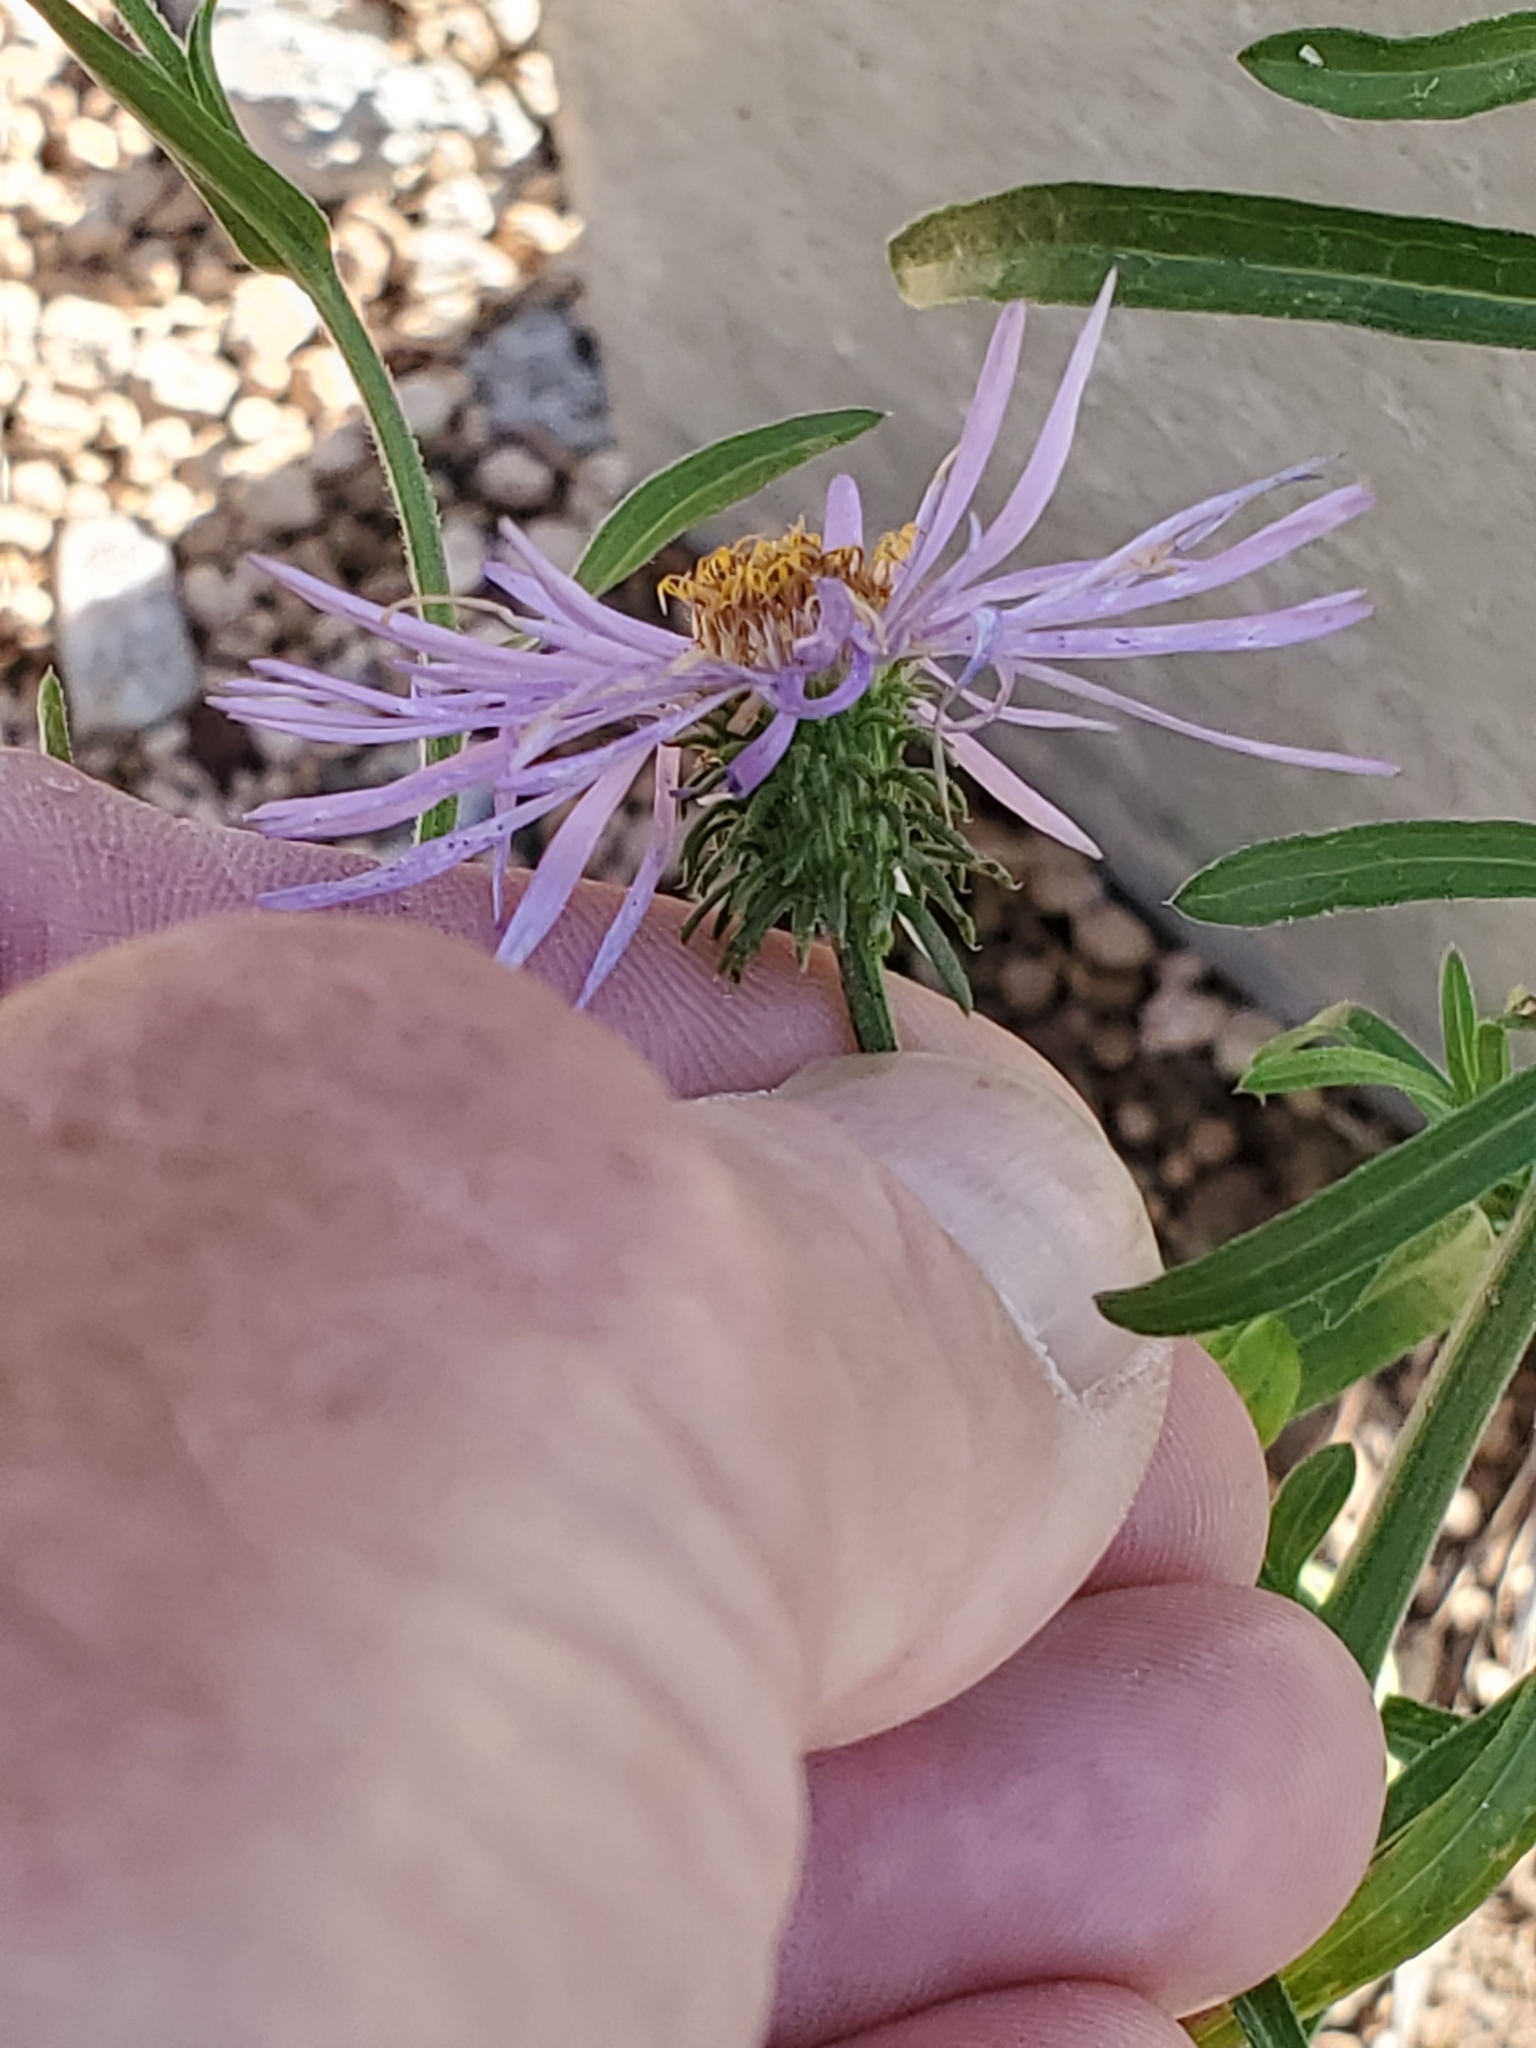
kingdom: Plantae
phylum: Tracheophyta
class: Magnoliopsida
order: Asterales
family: Asteraceae
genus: Dieteria
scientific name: Dieteria canescens
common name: Hoary-aster
